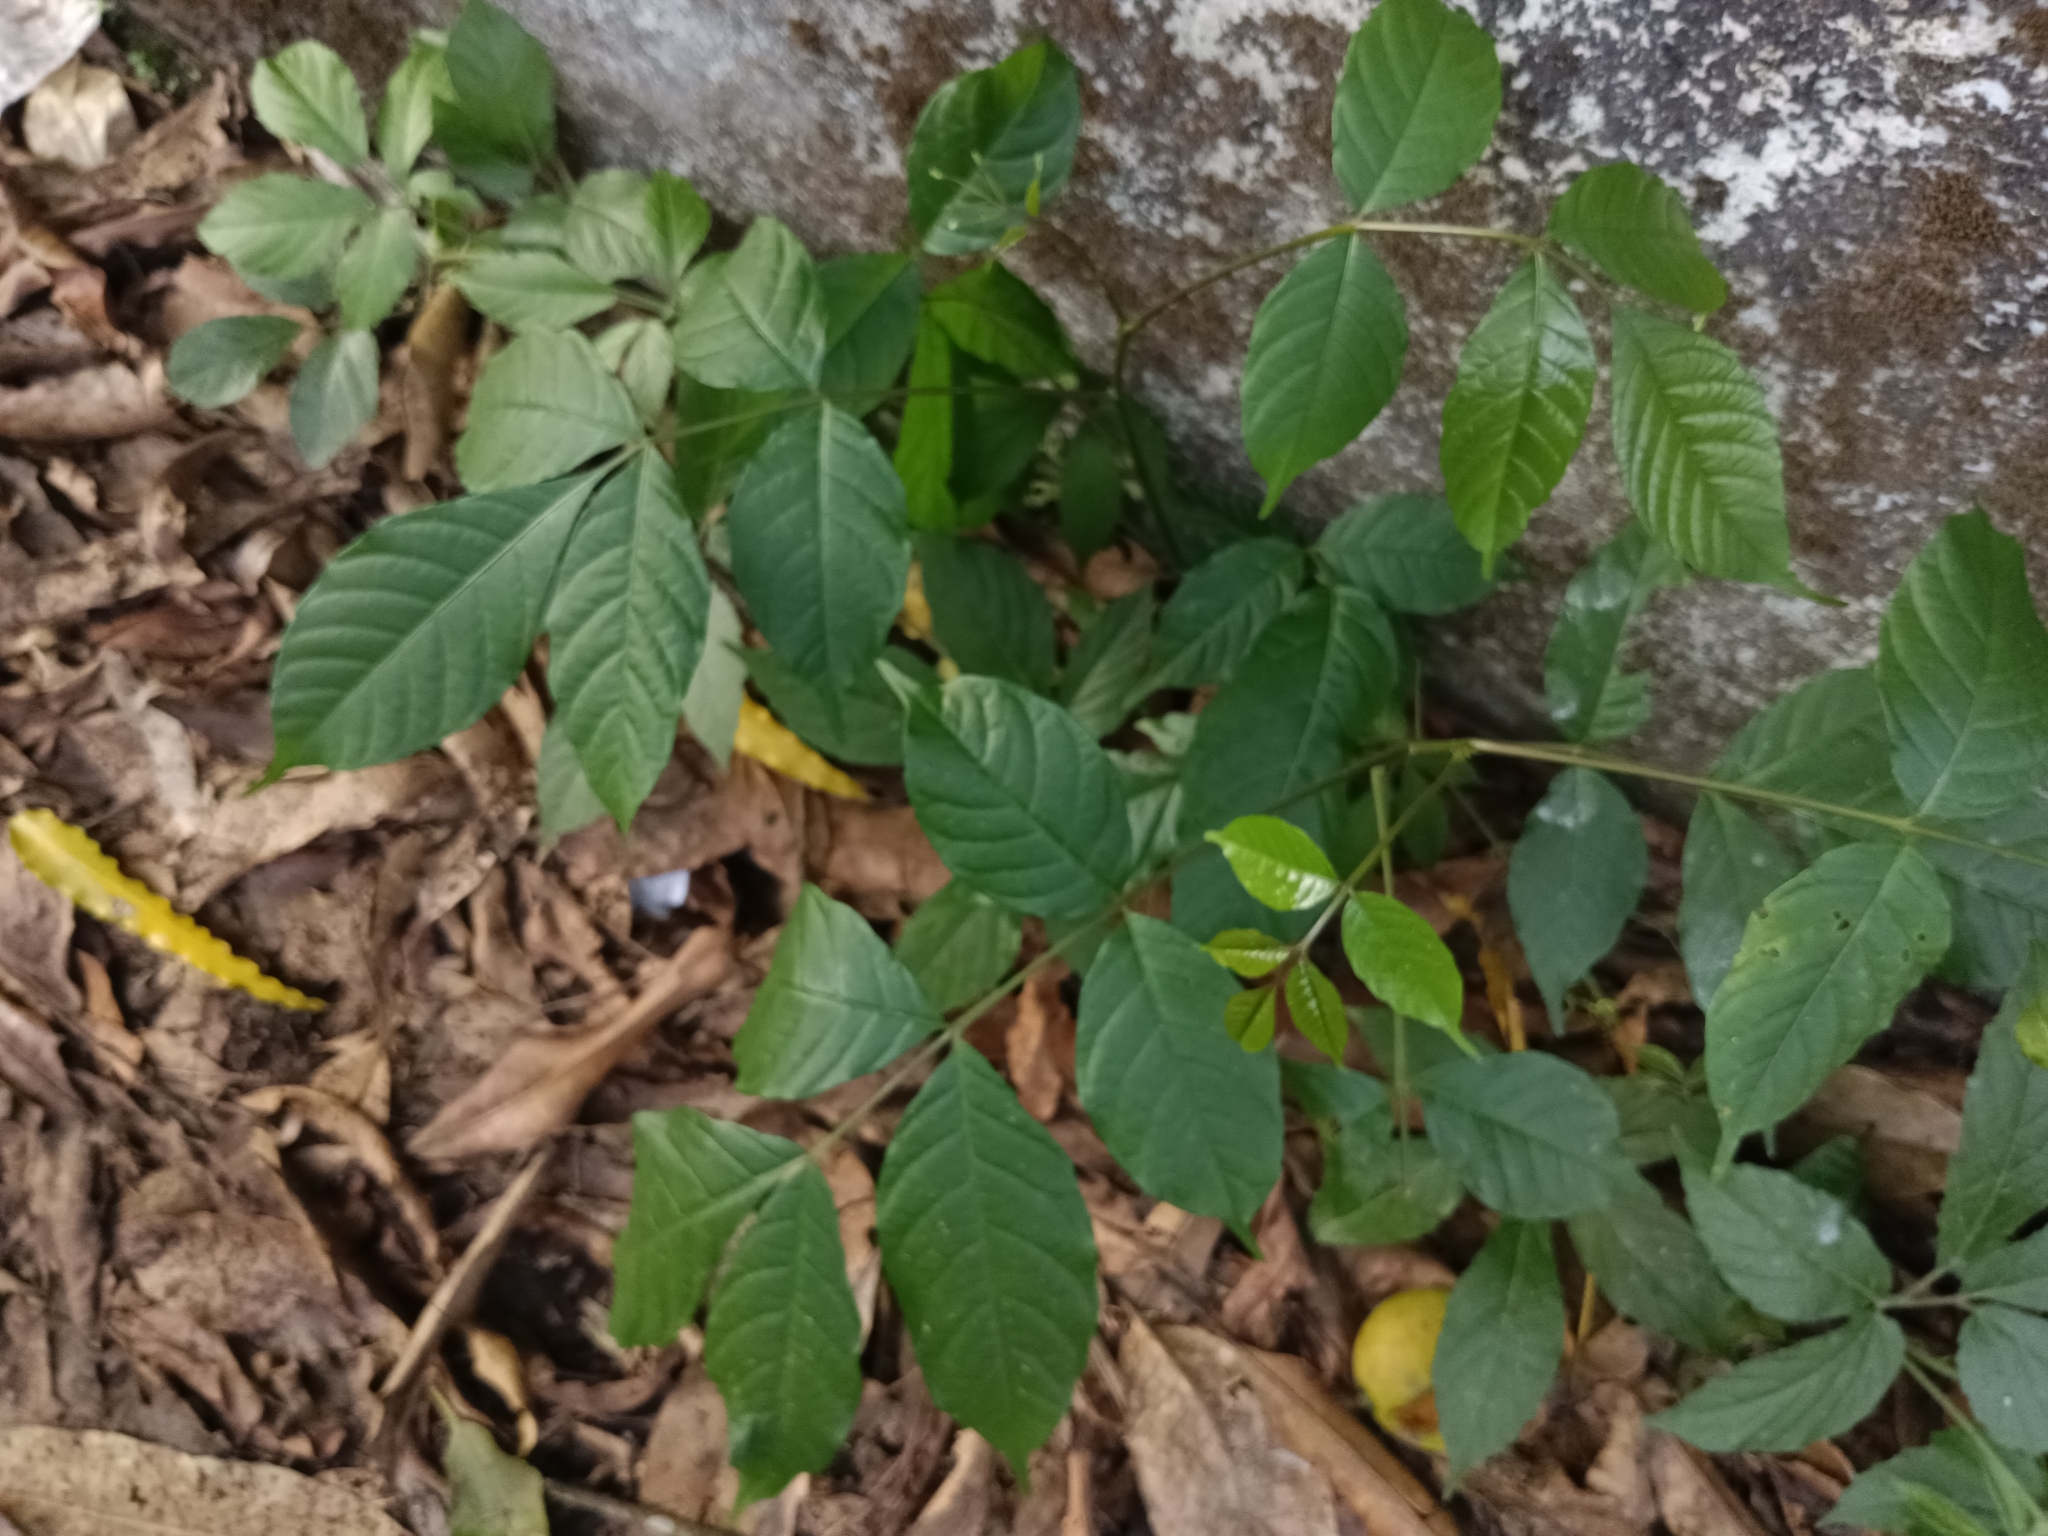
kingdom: Plantae
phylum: Tracheophyta
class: Magnoliopsida
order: Sapindales
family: Anacardiaceae
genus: Lannea
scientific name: Lannea coromandelica
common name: Indian ash tree
